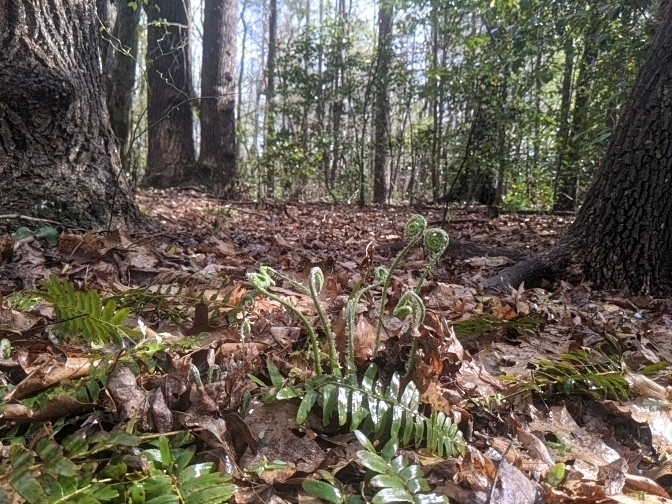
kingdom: Plantae
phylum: Tracheophyta
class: Polypodiopsida
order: Polypodiales
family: Dryopteridaceae
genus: Polystichum
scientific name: Polystichum acrostichoides
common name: Christmas fern
